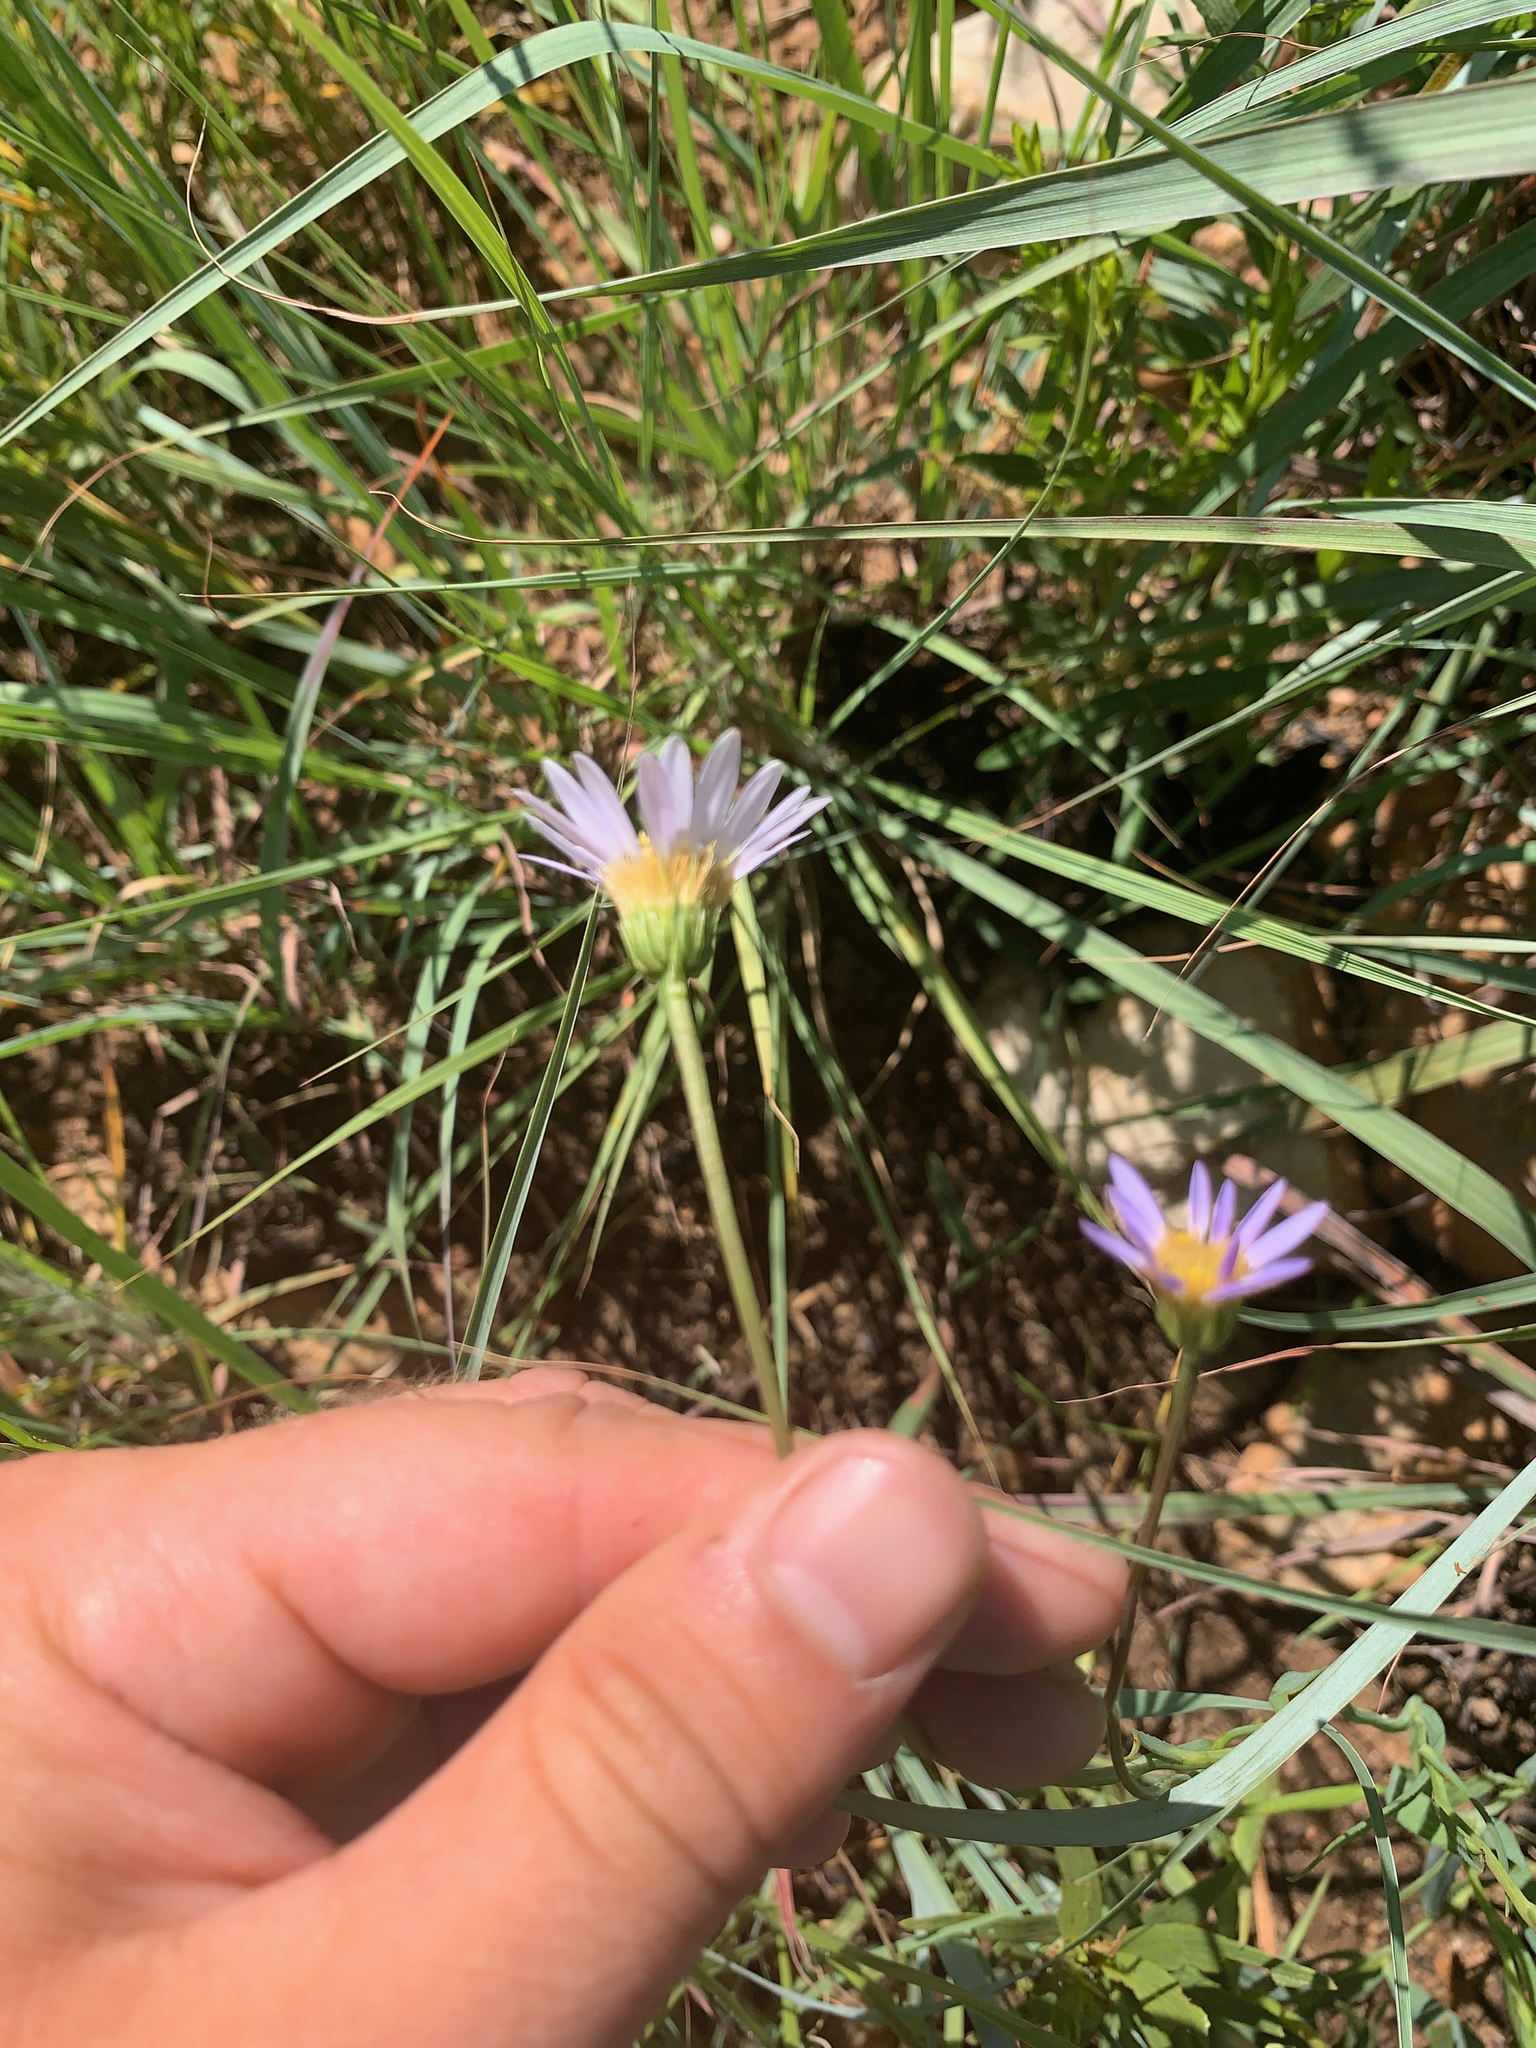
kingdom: Plantae
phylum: Tracheophyta
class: Magnoliopsida
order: Asterales
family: Asteraceae
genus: Afroaster
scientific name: Afroaster serrulatus
